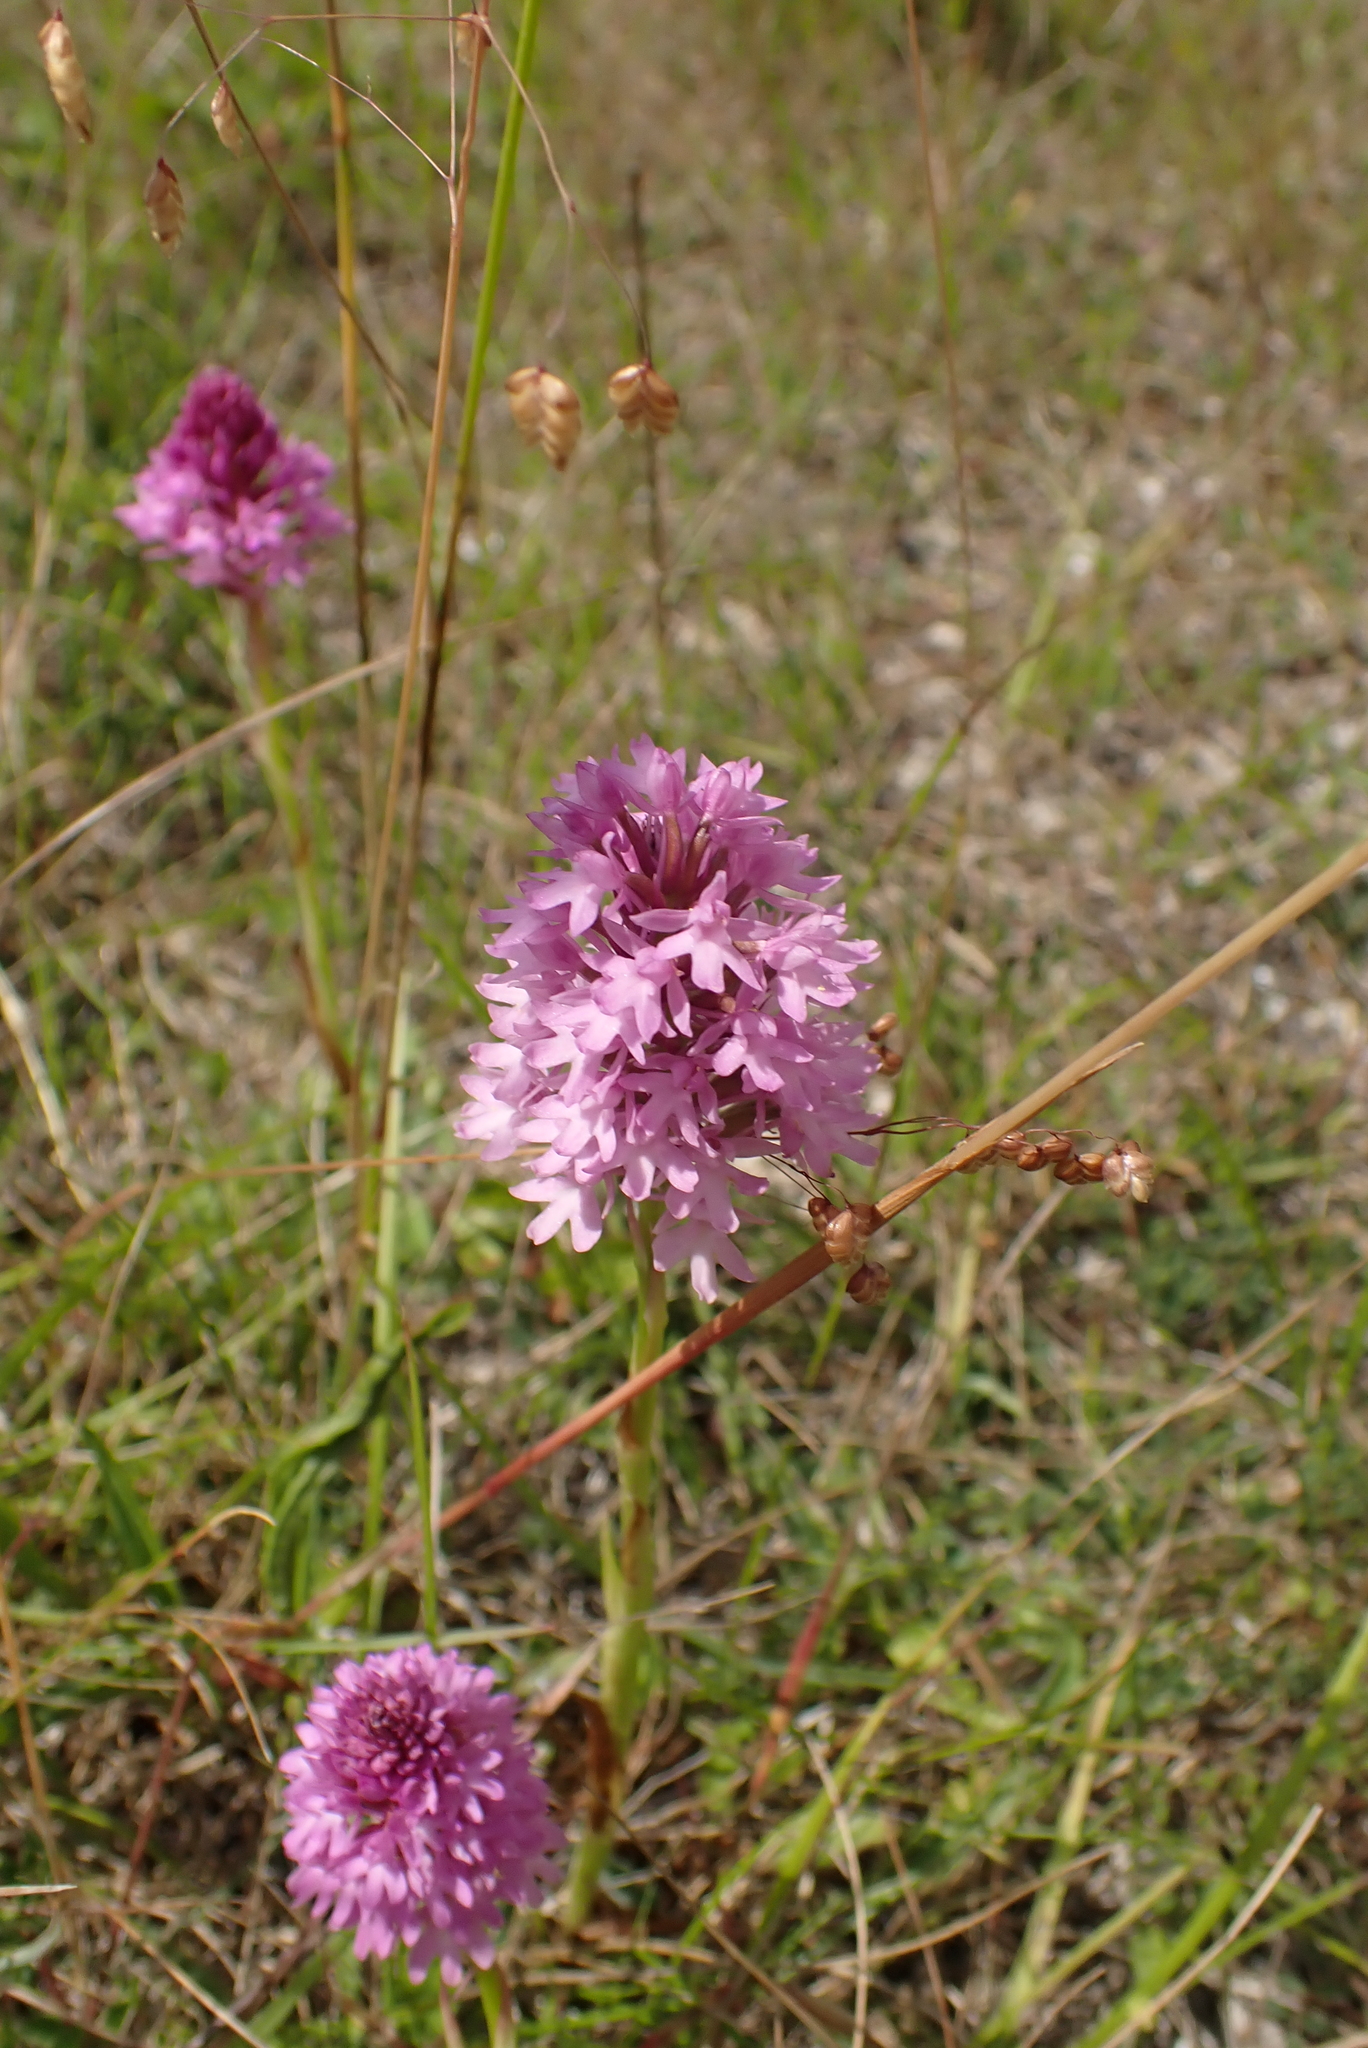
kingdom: Plantae
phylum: Tracheophyta
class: Liliopsida
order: Asparagales
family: Orchidaceae
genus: Anacamptis
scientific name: Anacamptis pyramidalis
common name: Pyramidal orchid
